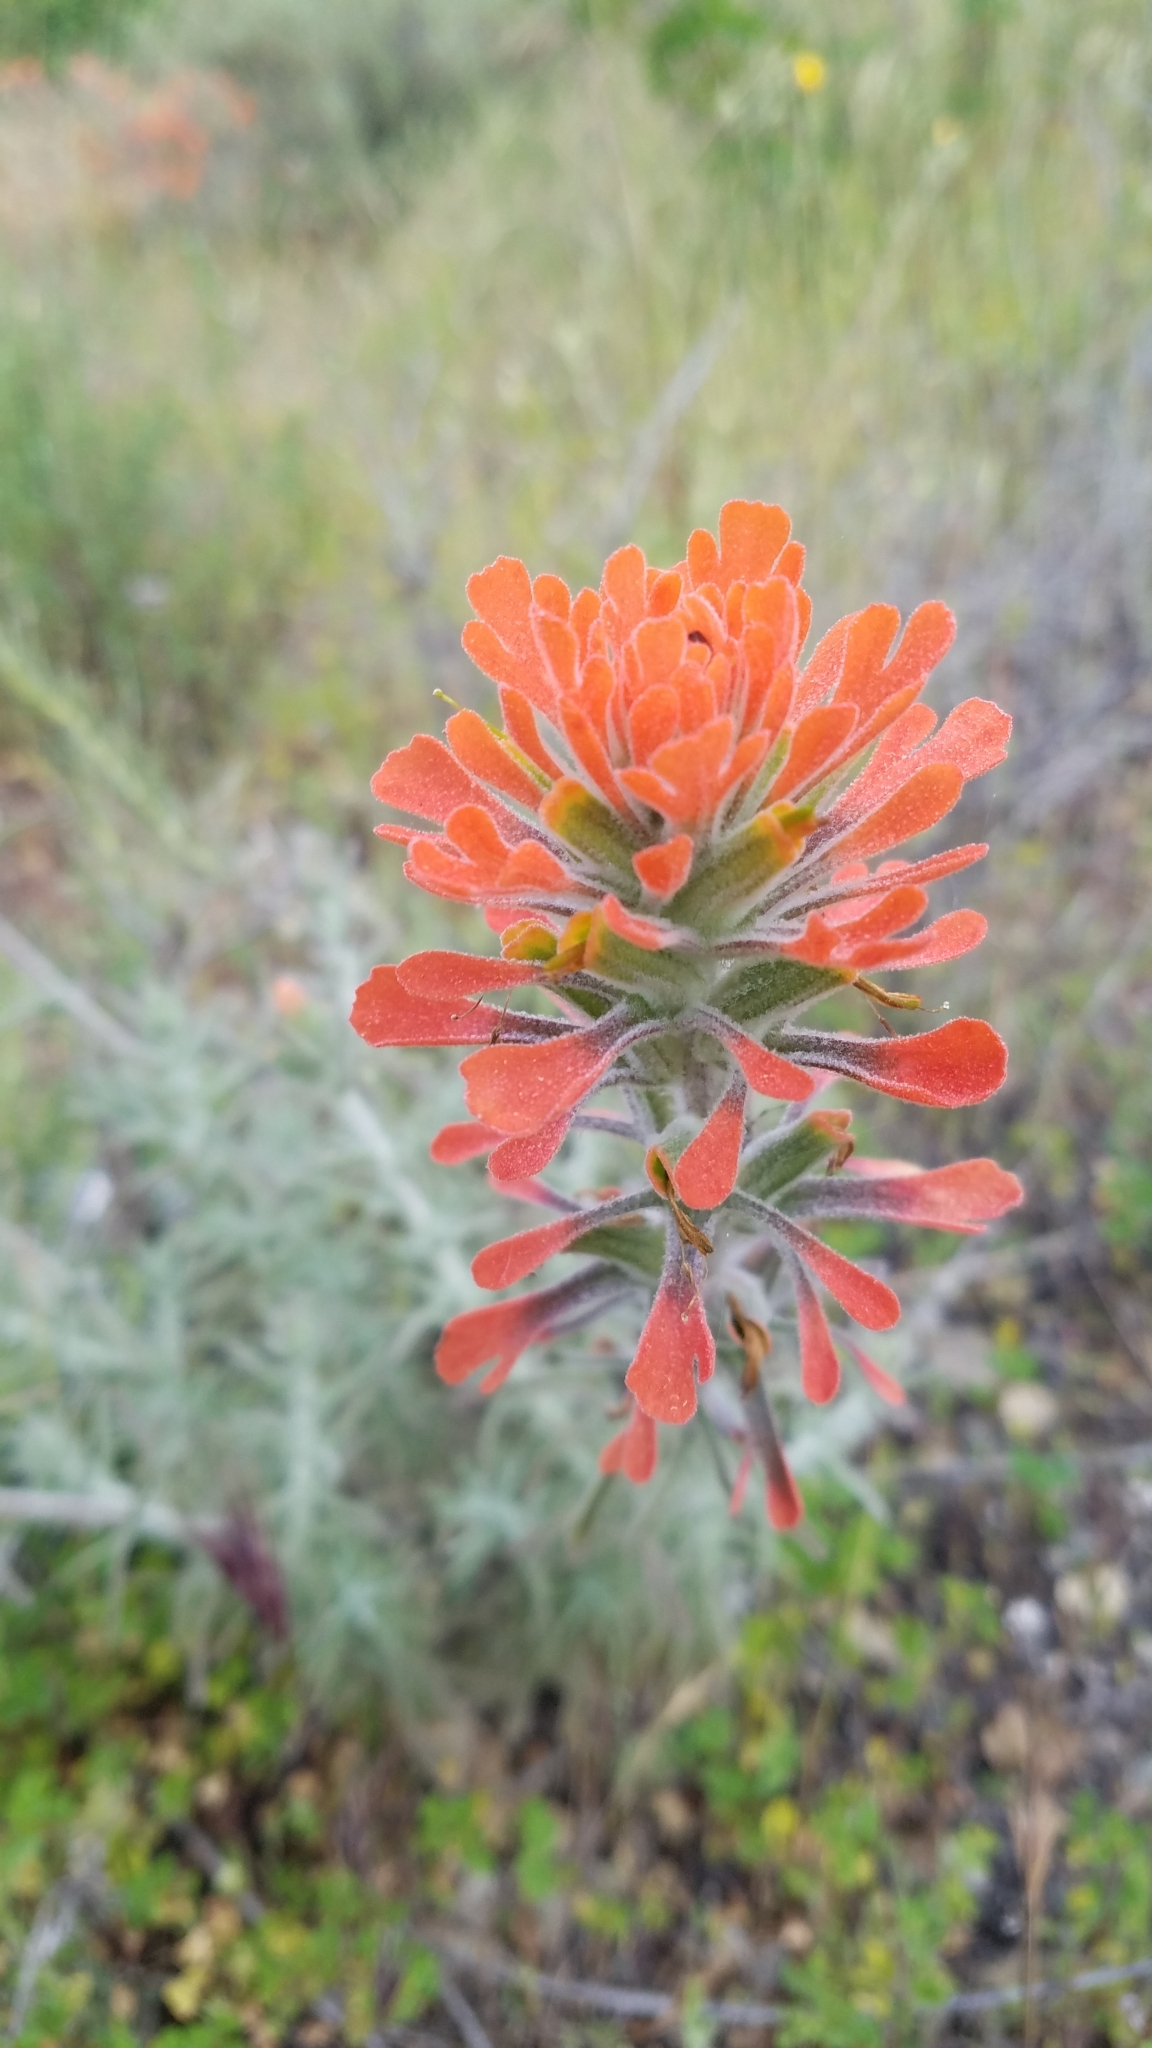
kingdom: Plantae
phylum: Tracheophyta
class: Magnoliopsida
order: Lamiales
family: Orobanchaceae
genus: Castilleja
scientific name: Castilleja foliolosa
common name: Woolly indian paintbrush
